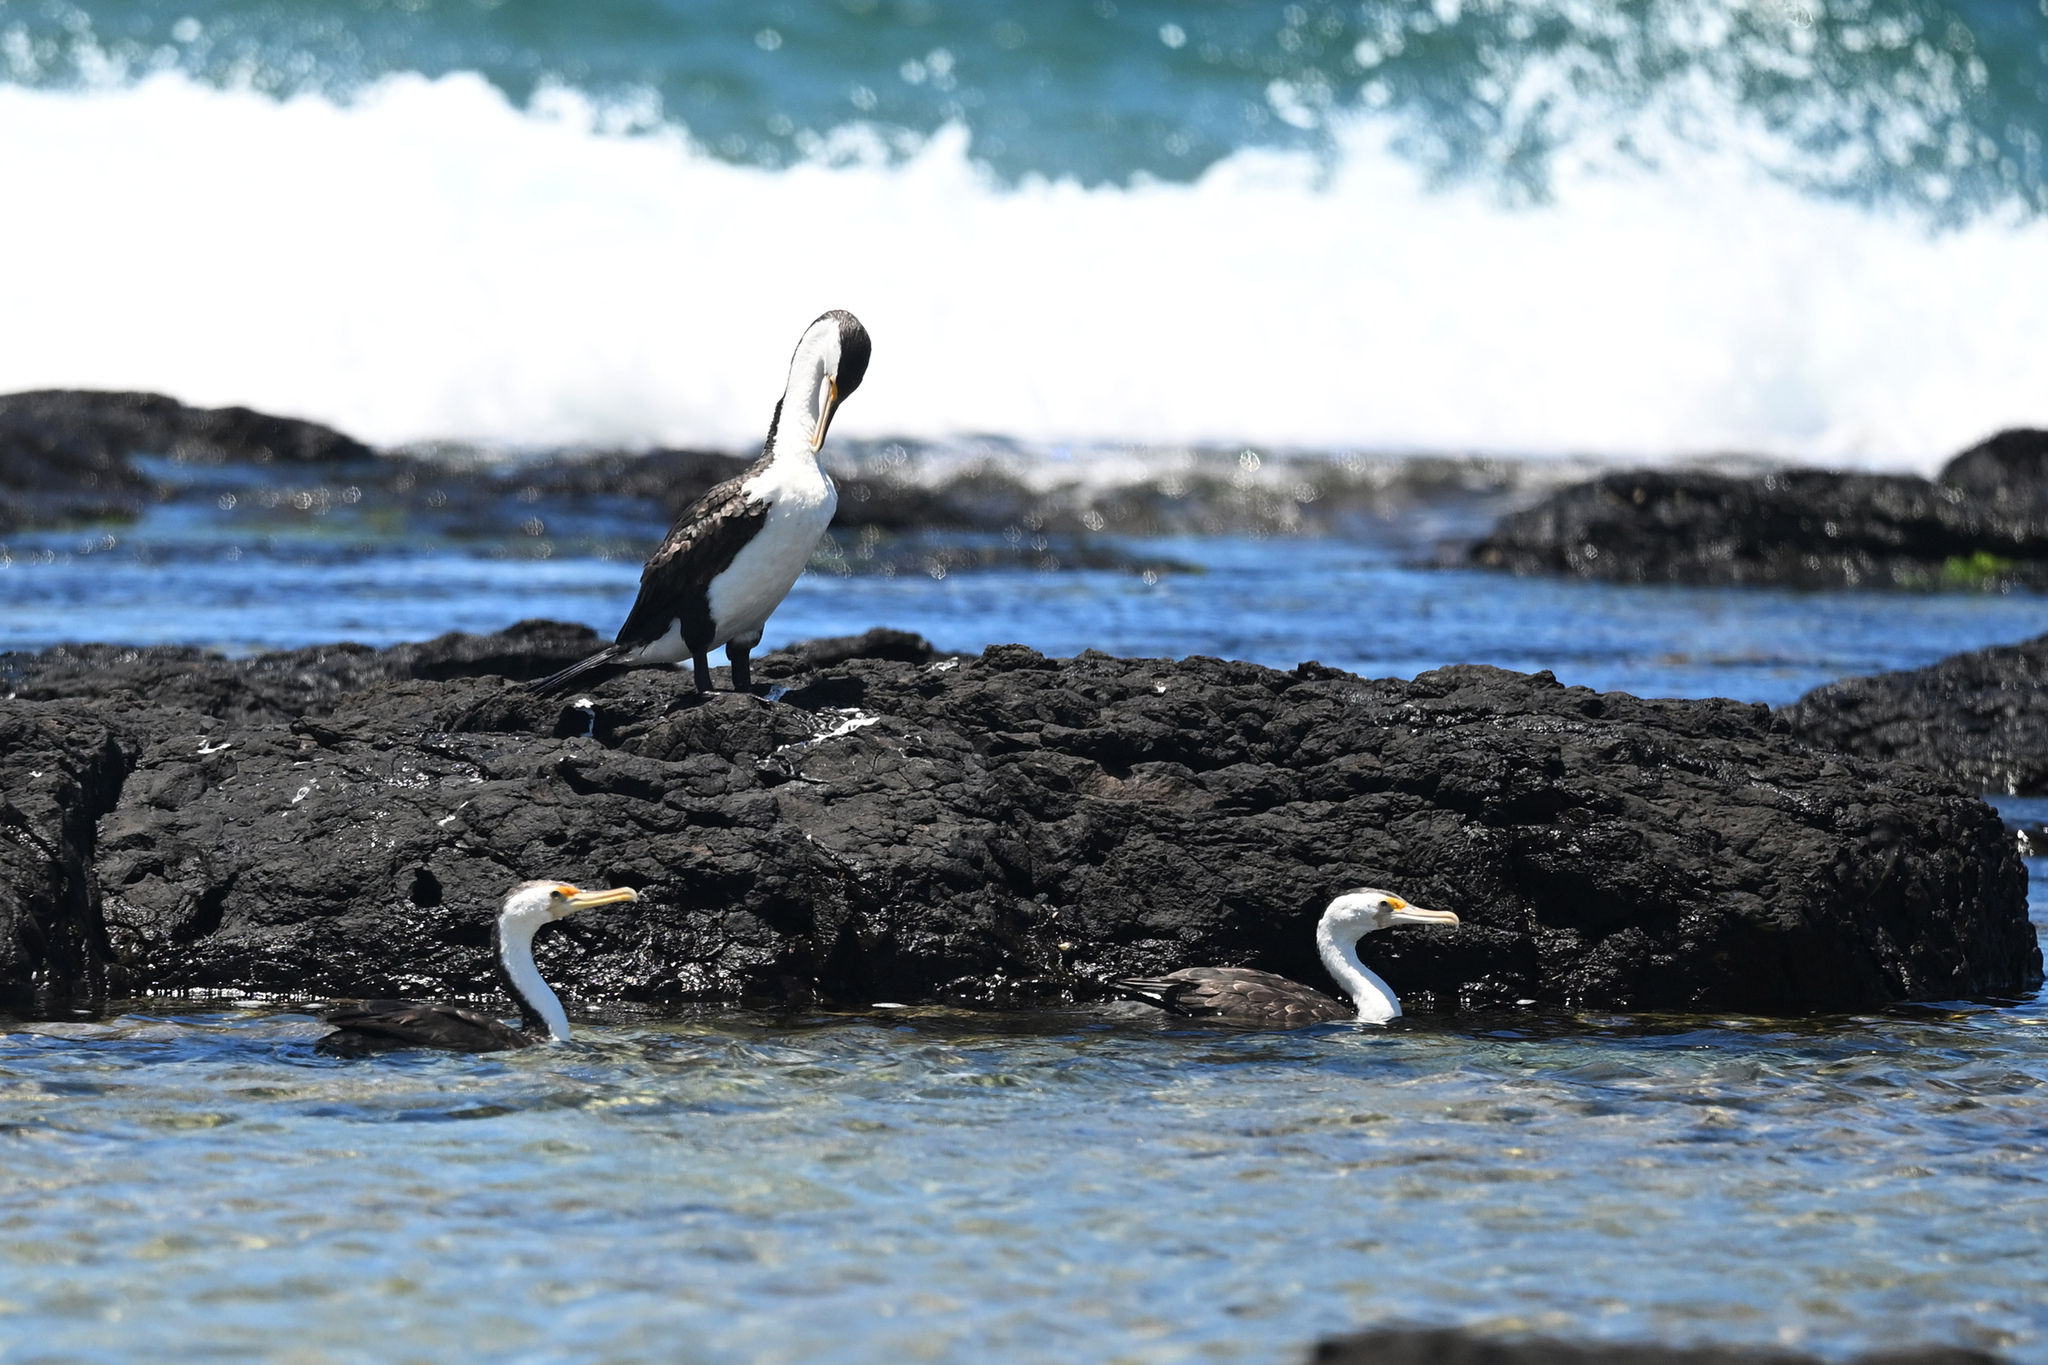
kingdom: Animalia
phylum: Chordata
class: Aves
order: Suliformes
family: Phalacrocoracidae
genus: Phalacrocorax
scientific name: Phalacrocorax varius
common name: Pied cormorant
